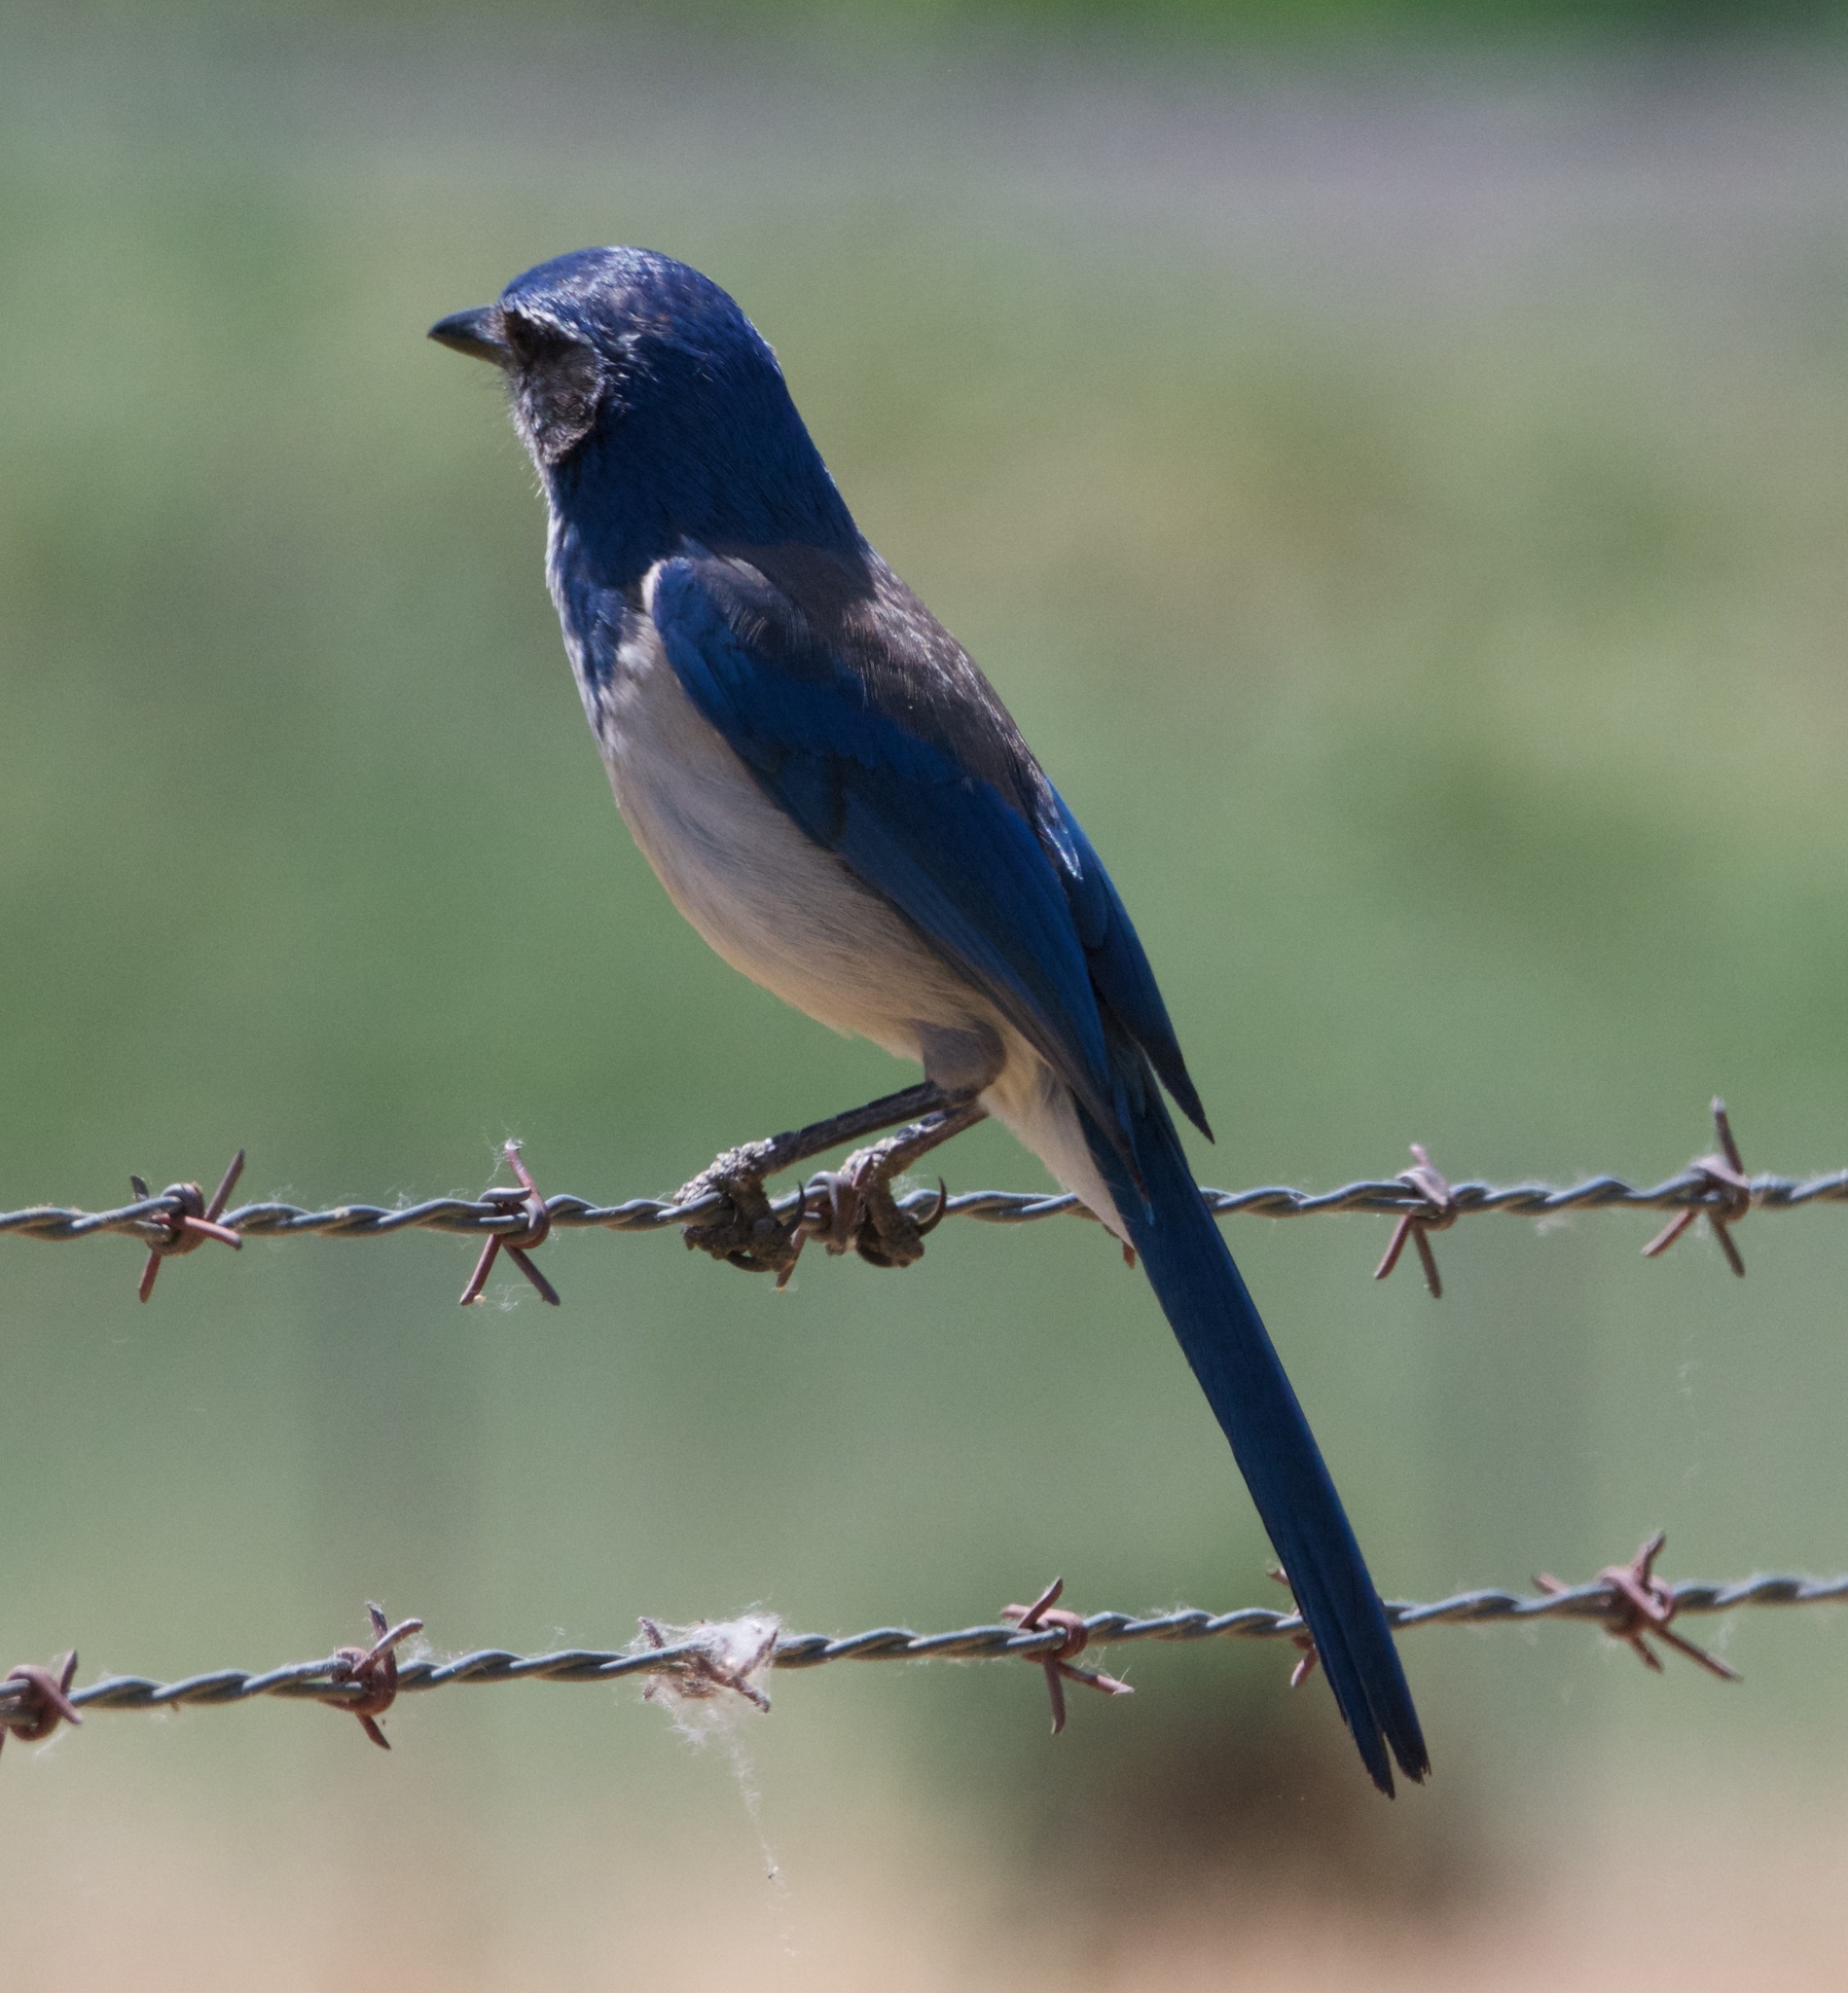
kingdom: Animalia
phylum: Chordata
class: Aves
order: Passeriformes
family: Corvidae
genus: Aphelocoma
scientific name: Aphelocoma californica
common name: California scrub-jay
